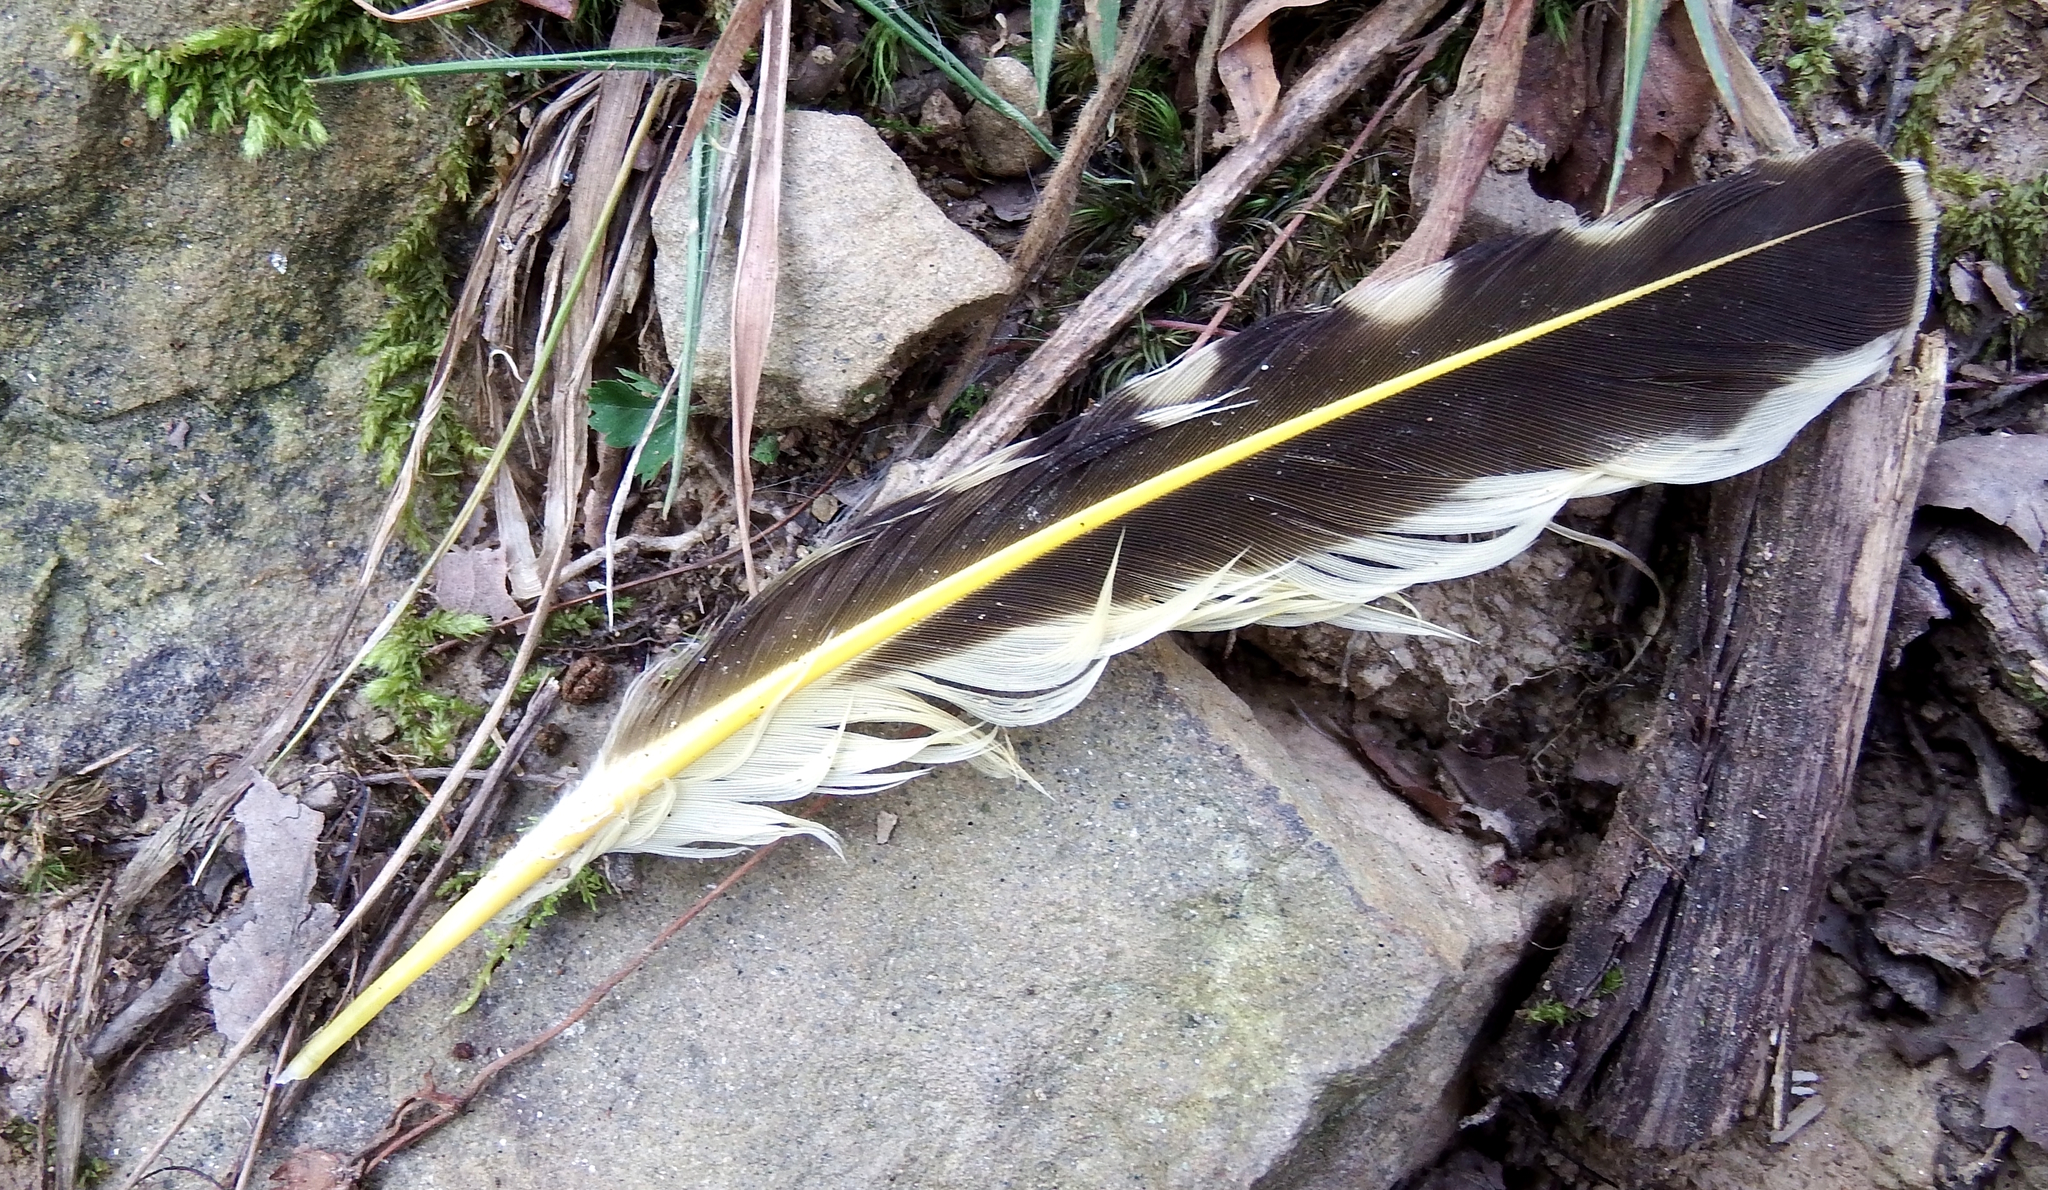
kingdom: Animalia
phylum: Chordata
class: Aves
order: Piciformes
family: Picidae
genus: Colaptes
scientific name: Colaptes auratus
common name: Northern flicker
